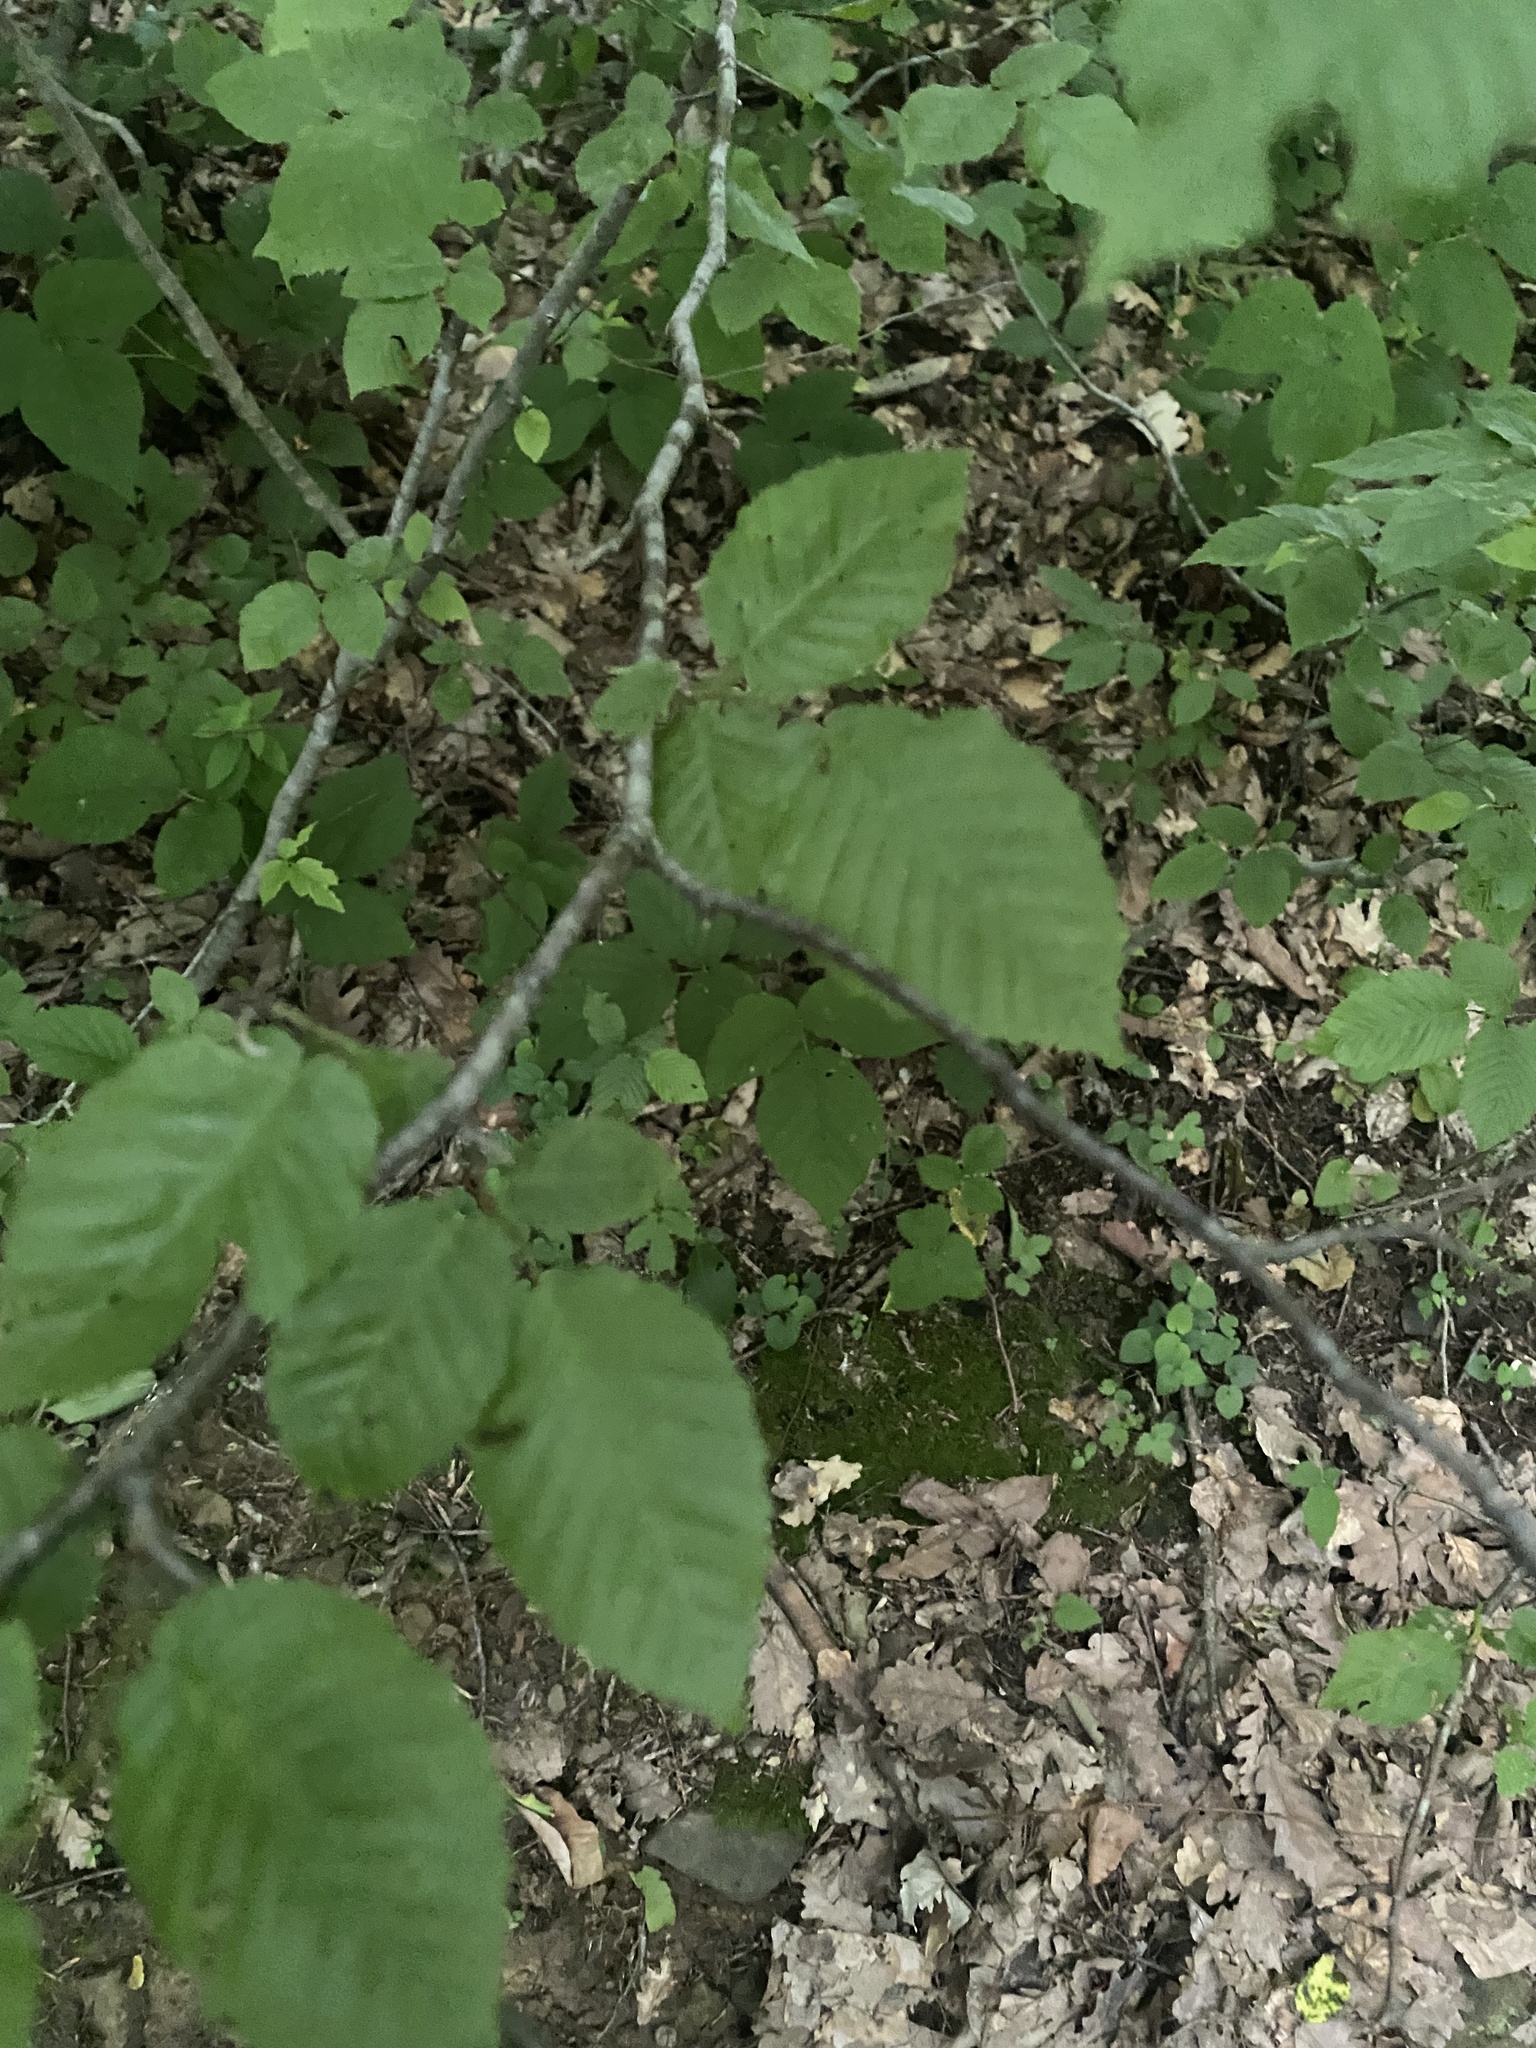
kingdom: Plantae
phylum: Tracheophyta
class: Magnoliopsida
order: Fagales
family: Betulaceae
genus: Carpinus
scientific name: Carpinus orientalis
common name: Eastern hornbeam
